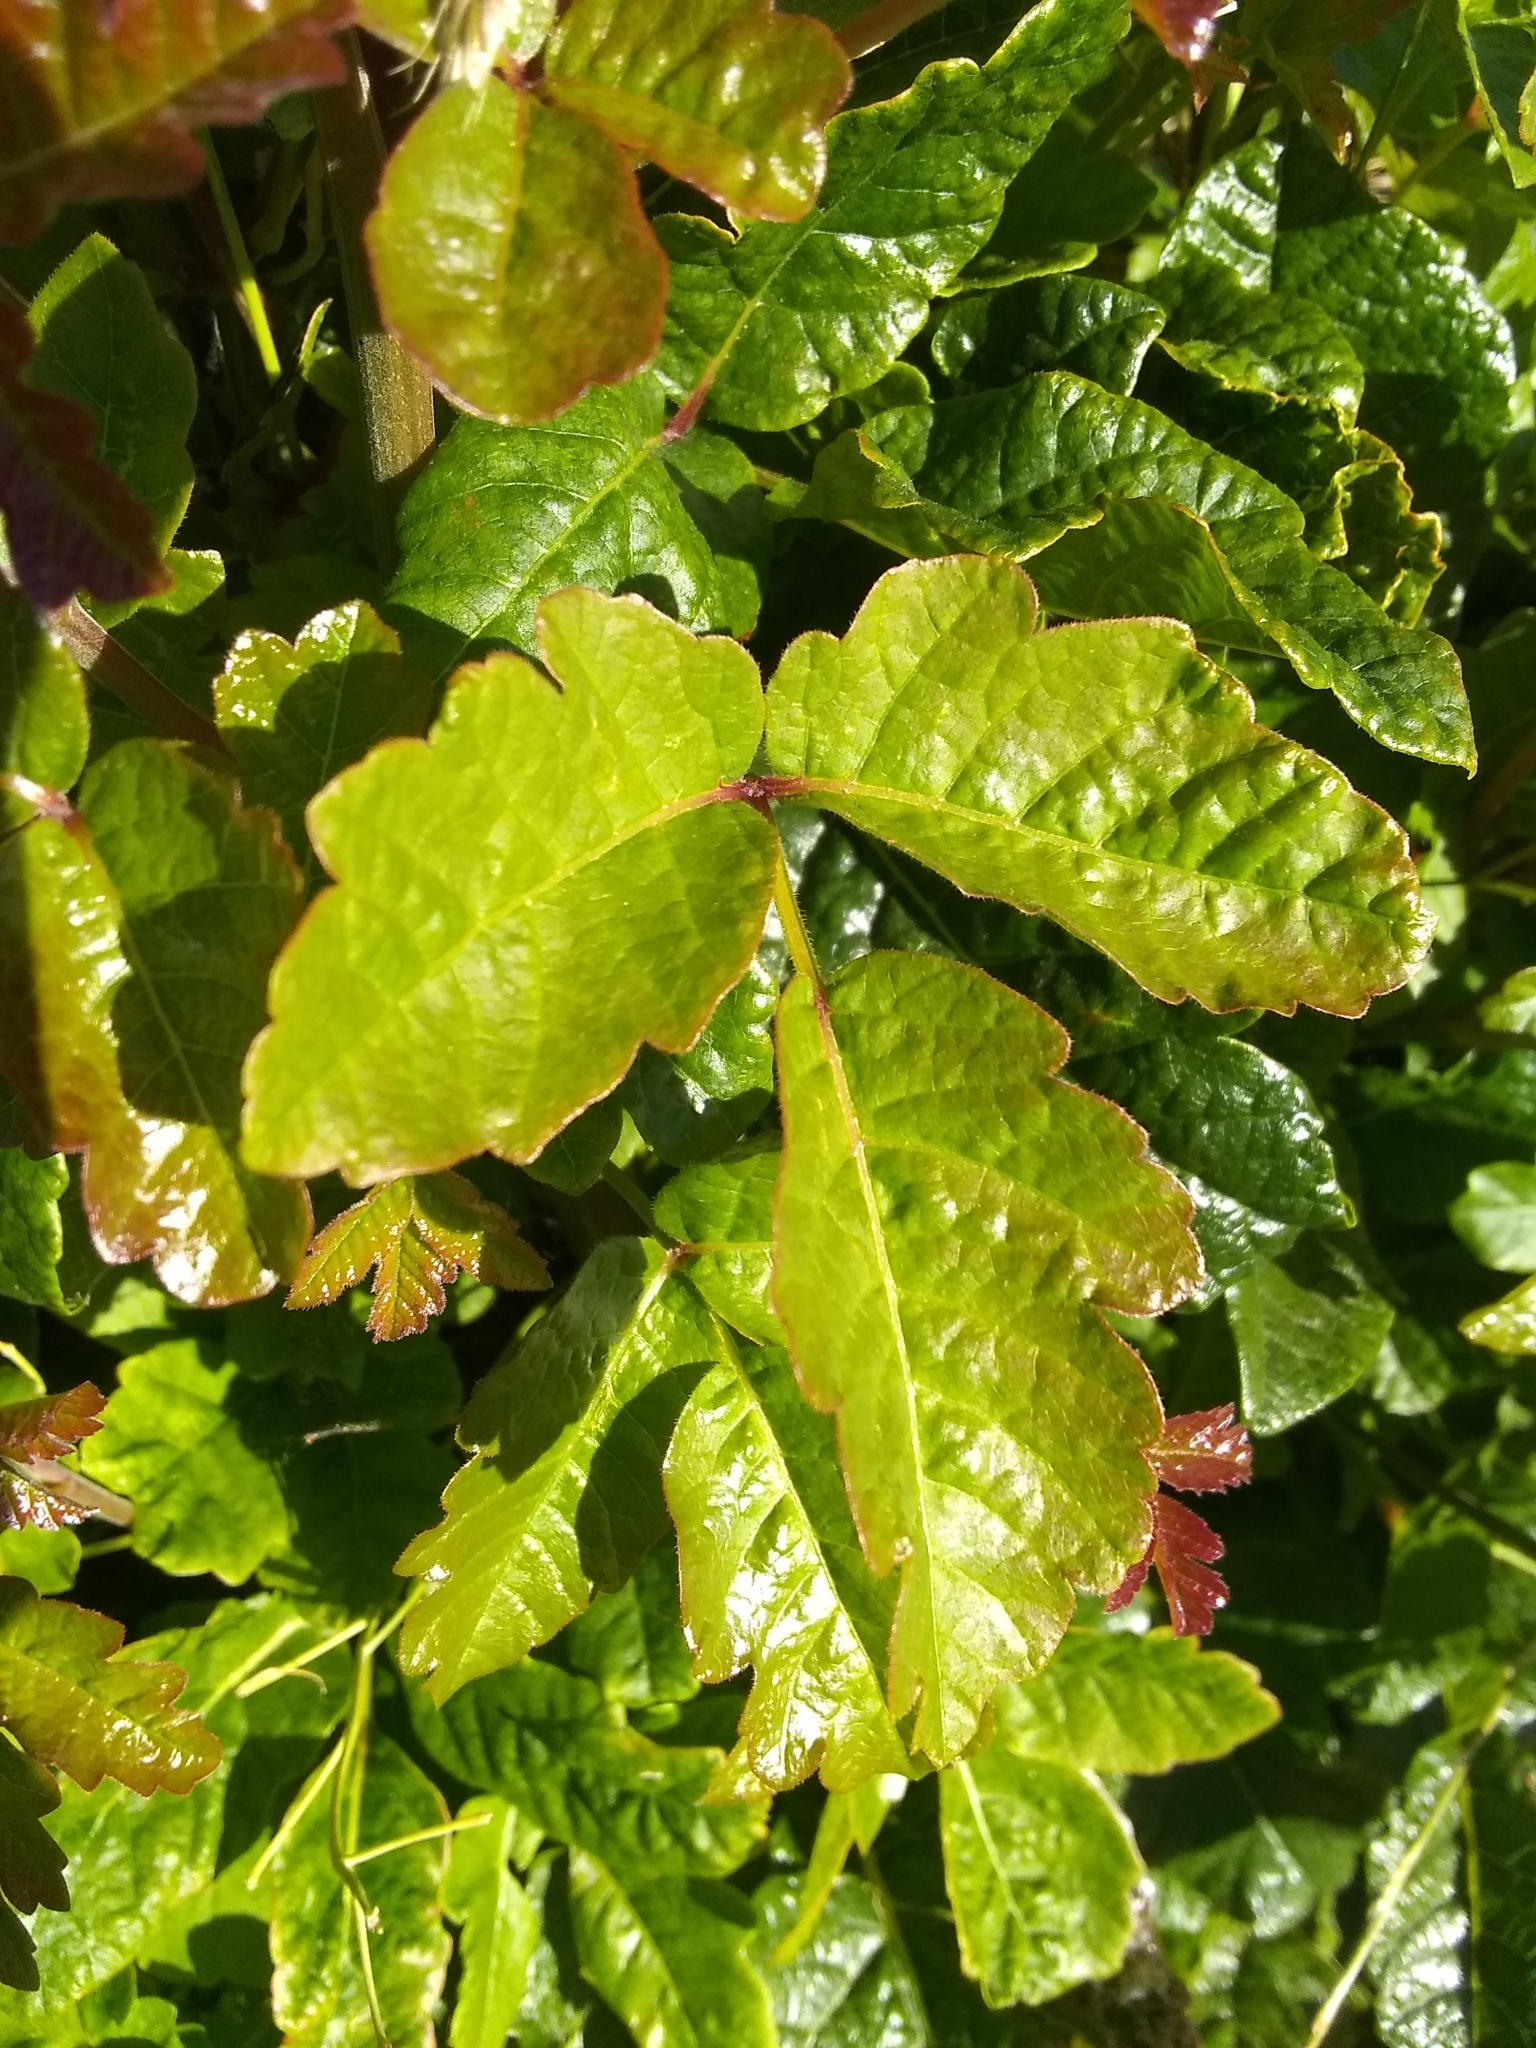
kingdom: Plantae
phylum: Tracheophyta
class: Magnoliopsida
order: Sapindales
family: Anacardiaceae
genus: Toxicodendron
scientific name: Toxicodendron diversilobum
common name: Pacific poison-oak
